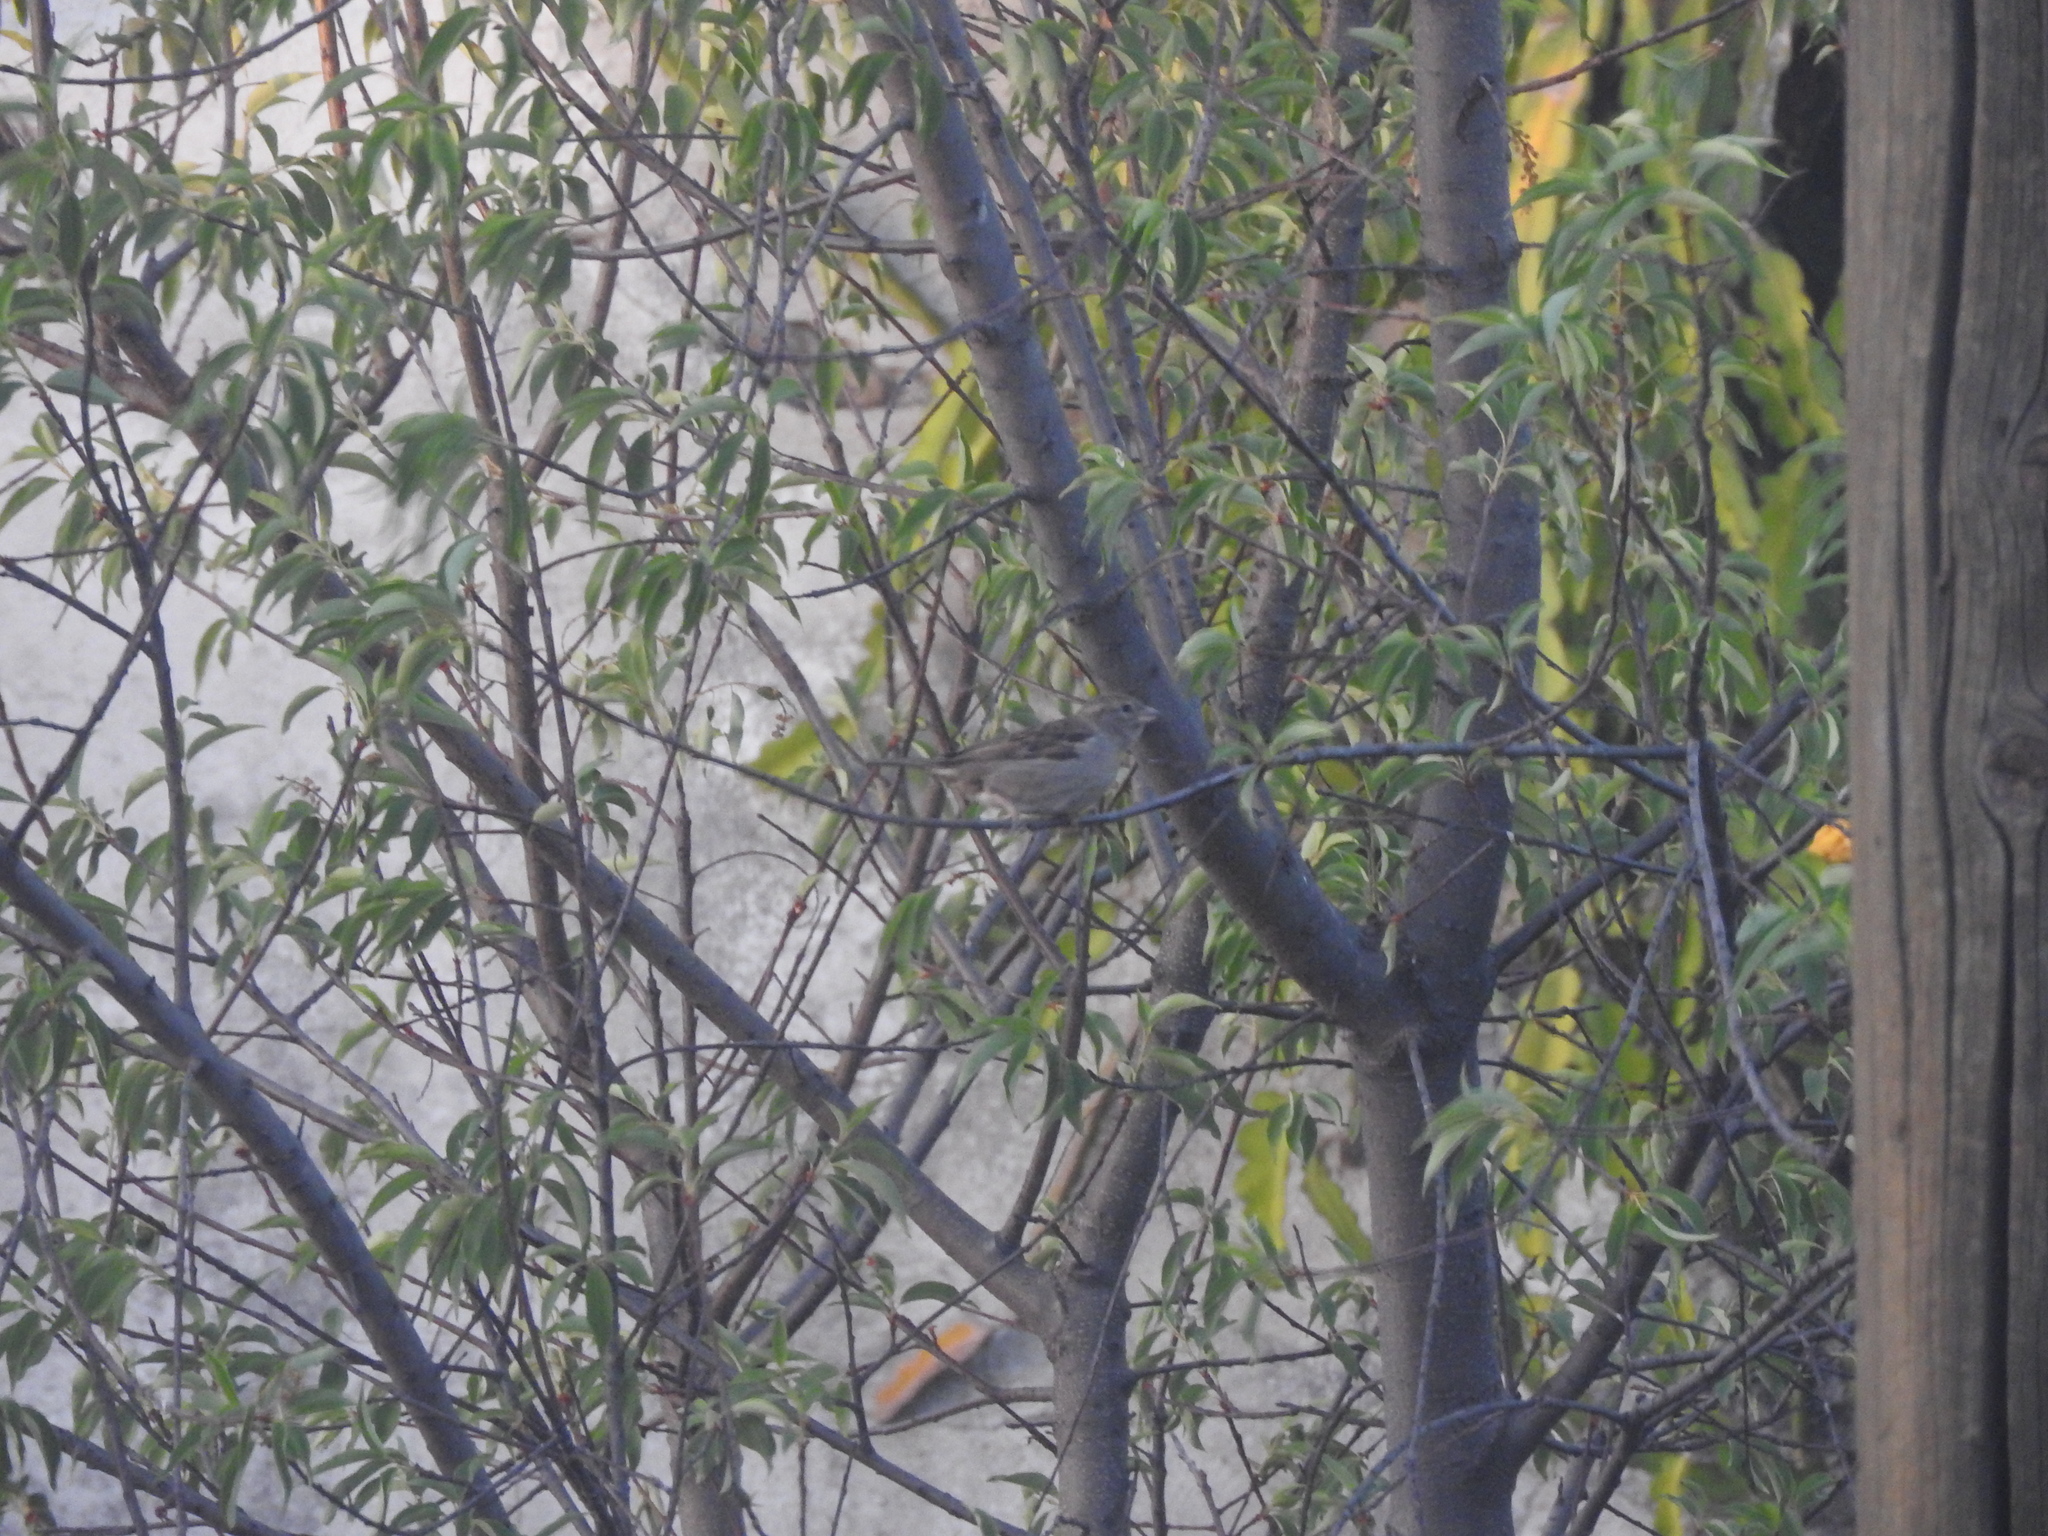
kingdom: Animalia
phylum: Chordata
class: Aves
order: Passeriformes
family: Passeridae
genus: Passer
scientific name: Passer domesticus
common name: House sparrow
